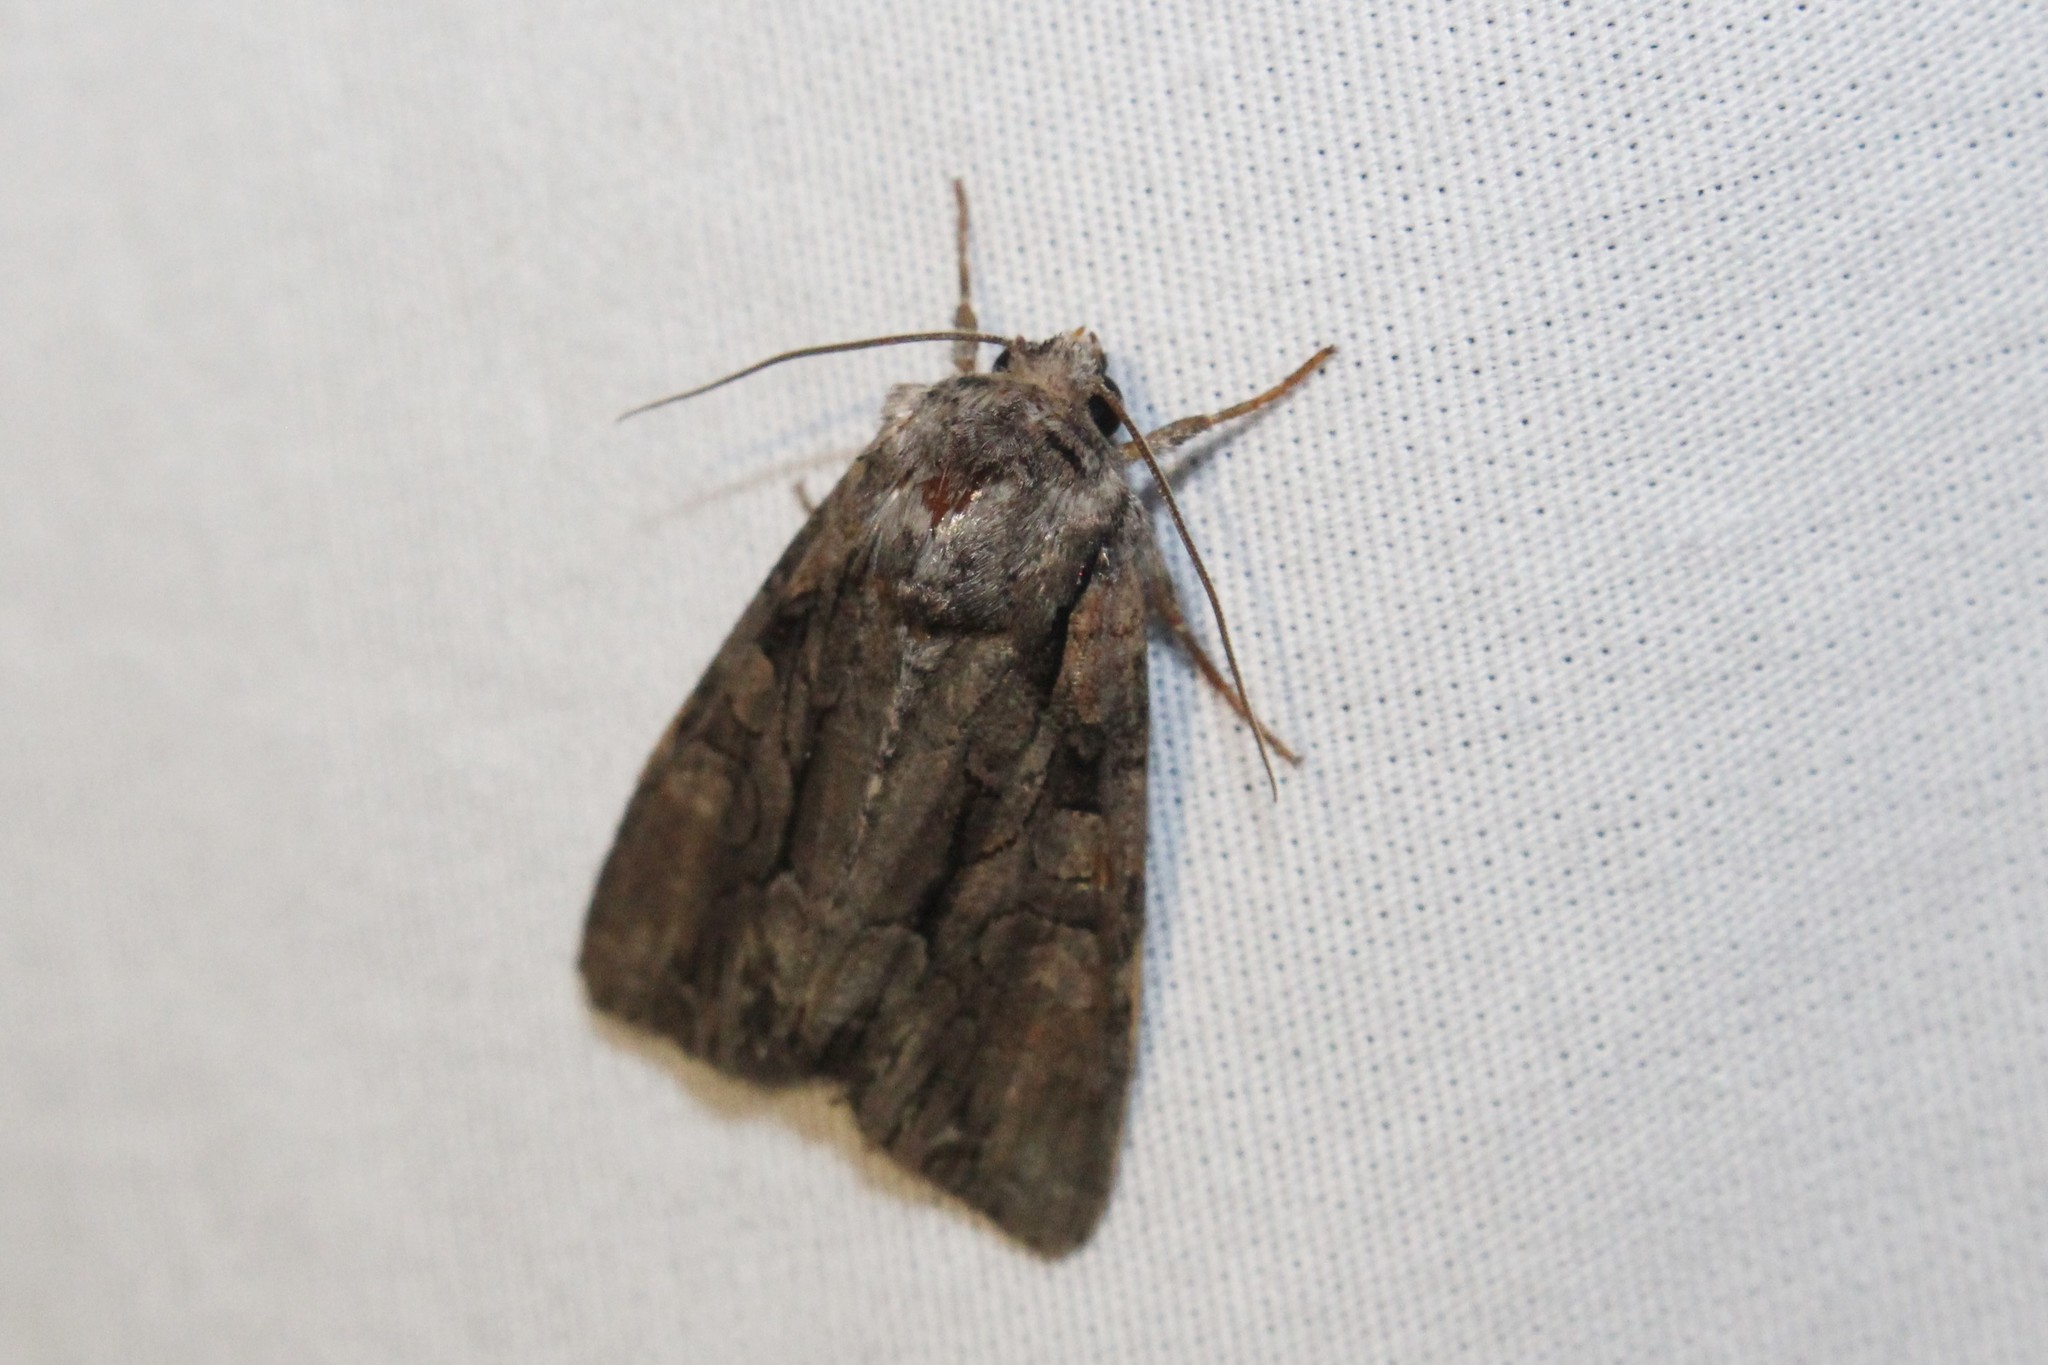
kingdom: Animalia
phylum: Arthropoda
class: Insecta
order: Lepidoptera
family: Noctuidae
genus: Lacanobia
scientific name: Lacanobia subjuncta
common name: Speckled cutworm moth
